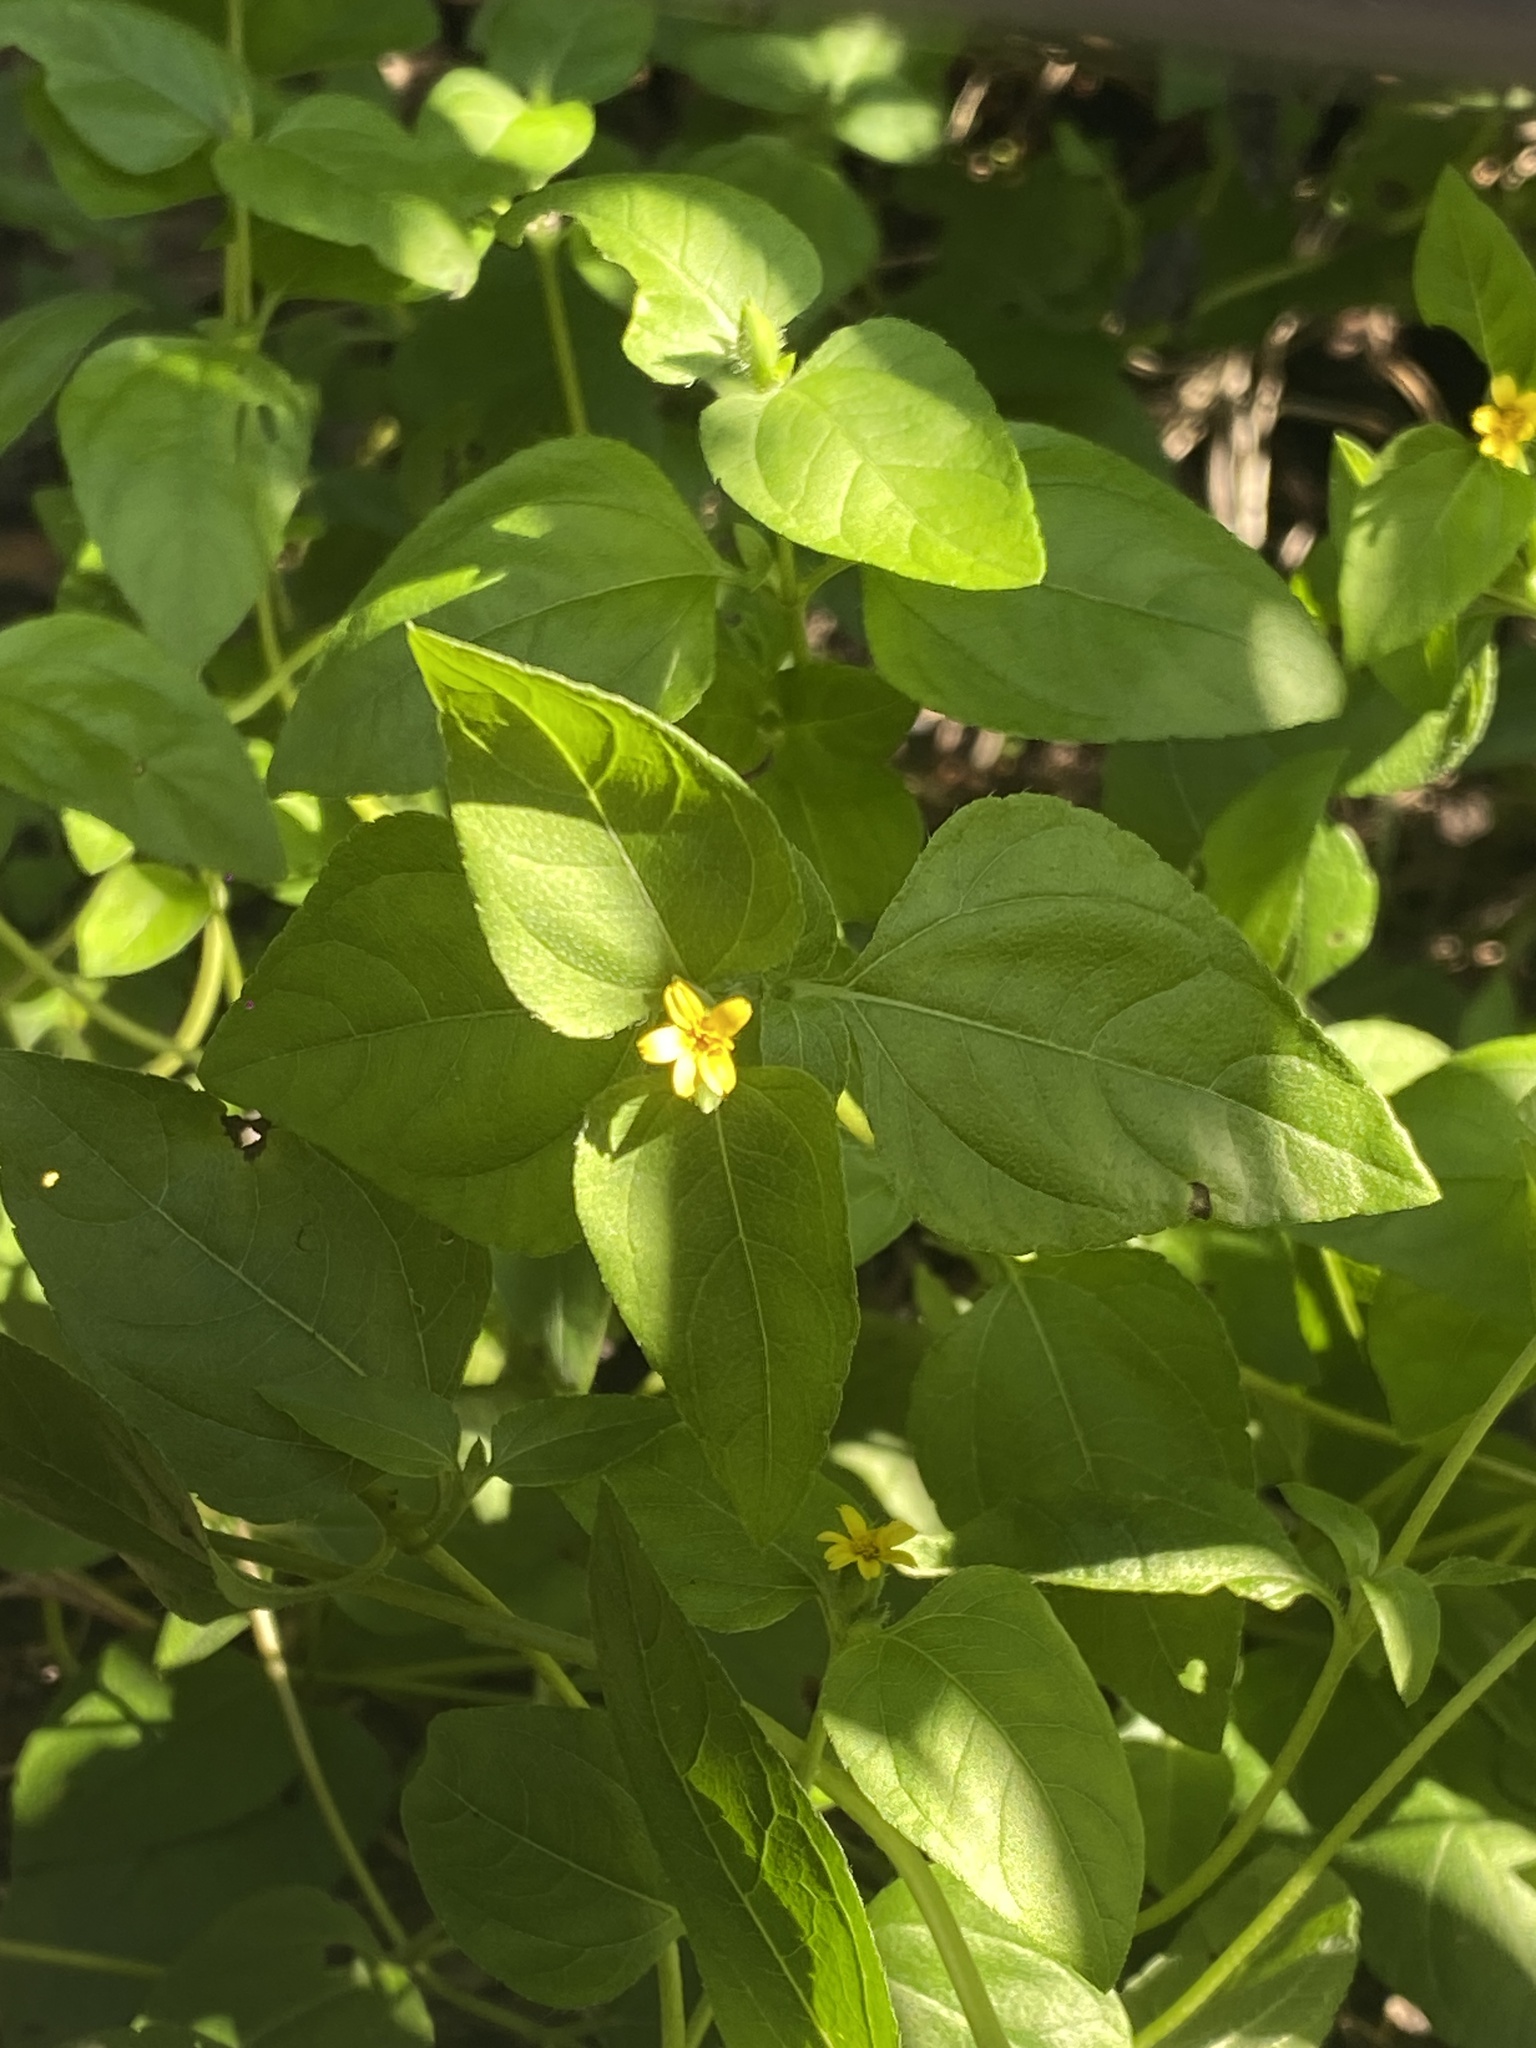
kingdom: Plantae
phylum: Tracheophyta
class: Magnoliopsida
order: Asterales
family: Asteraceae
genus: Calyptocarpus
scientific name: Calyptocarpus vialis
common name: Straggler daisy
